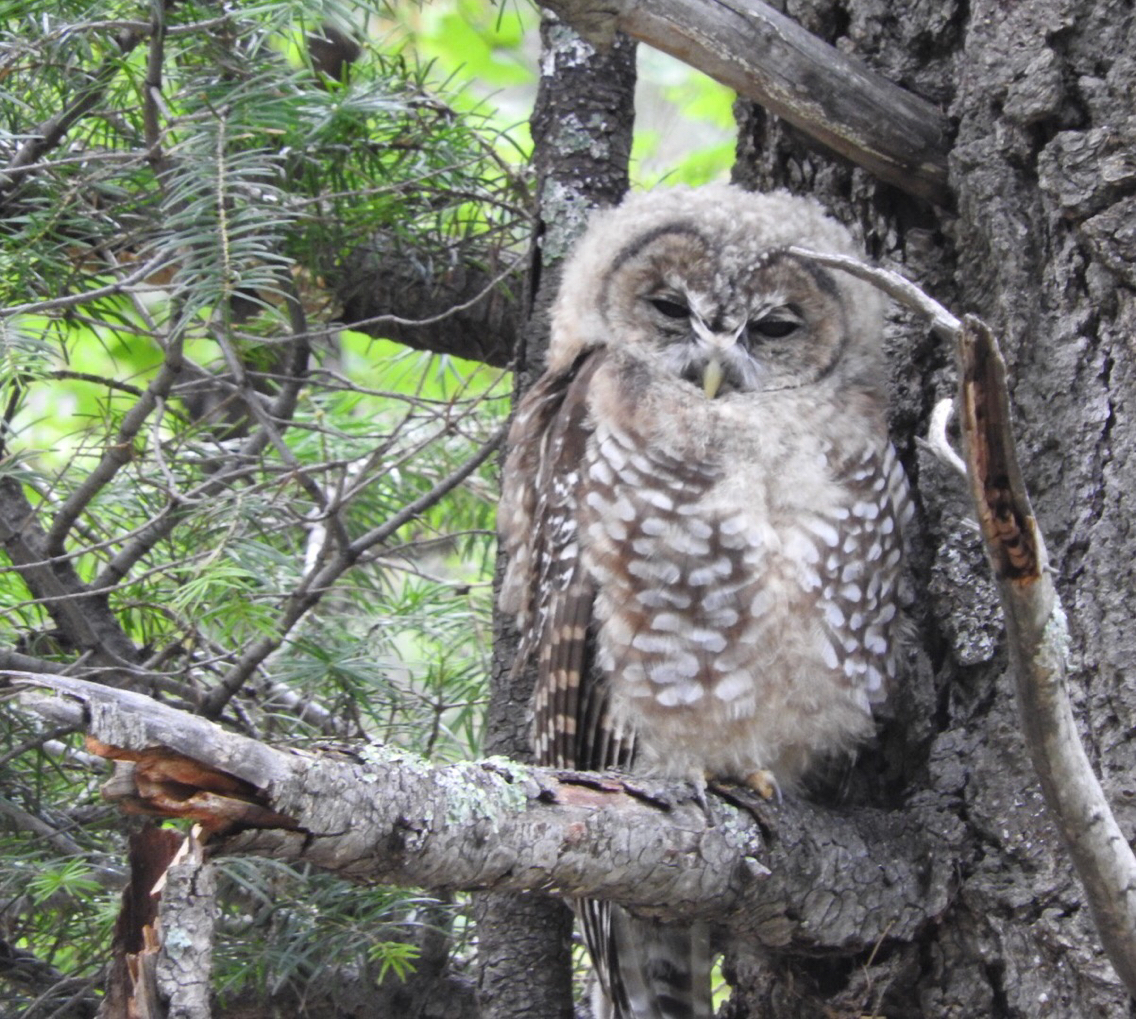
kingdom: Animalia
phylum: Chordata
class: Aves
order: Strigiformes
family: Strigidae
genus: Strix
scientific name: Strix occidentalis
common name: Spotted owl
